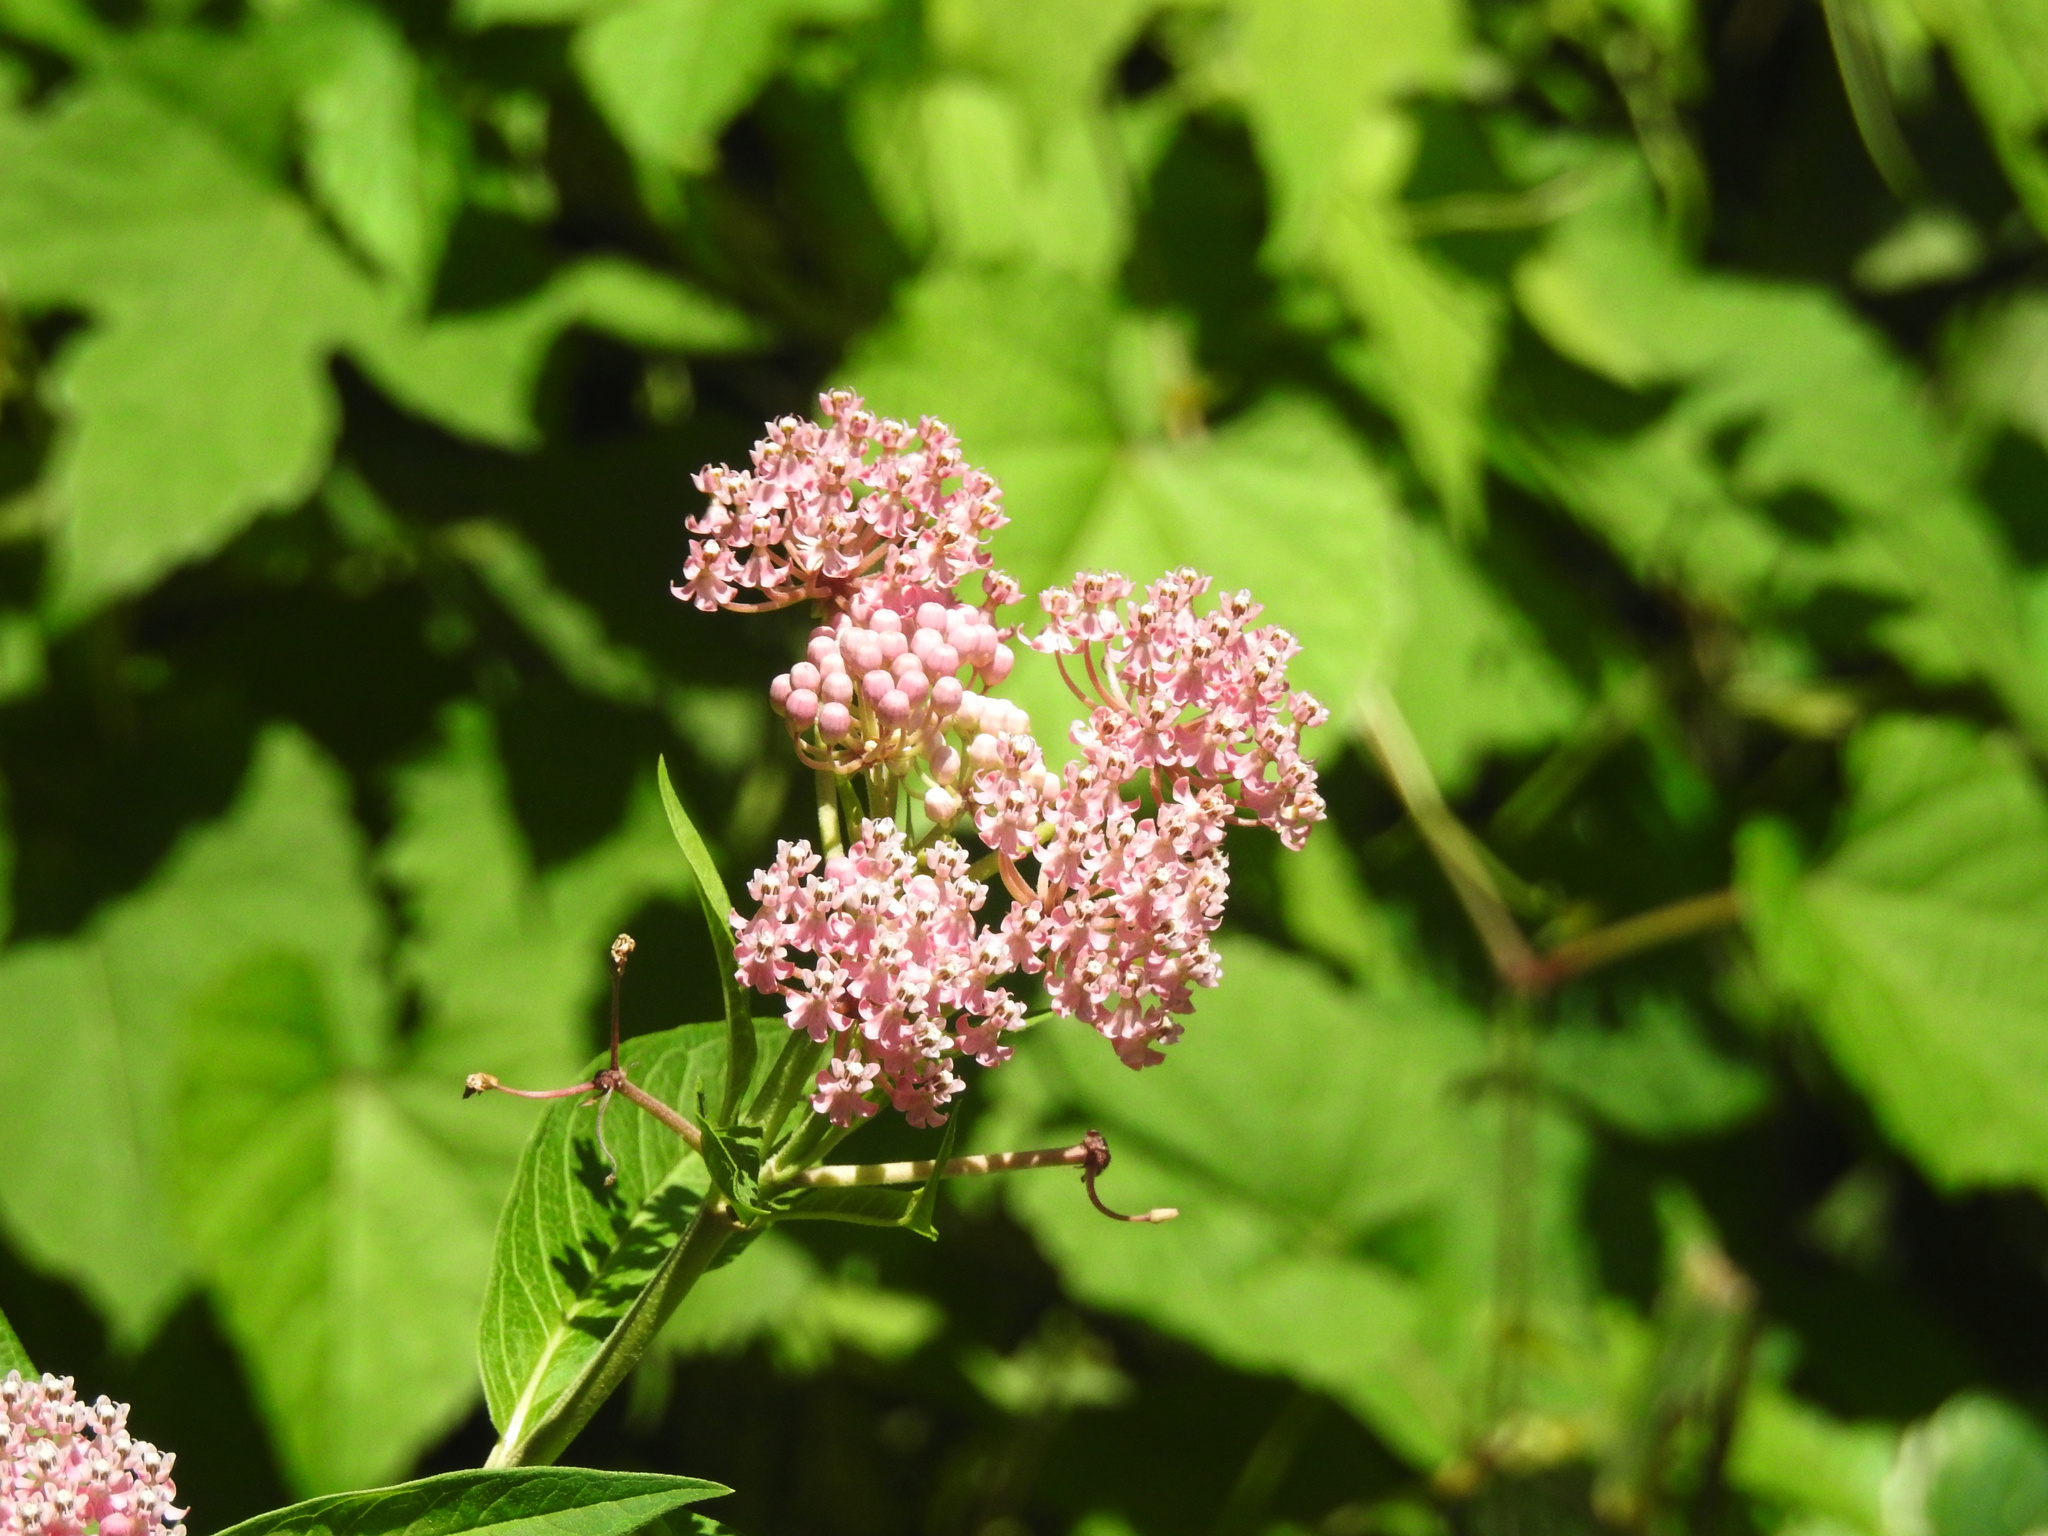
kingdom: Plantae
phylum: Tracheophyta
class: Magnoliopsida
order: Gentianales
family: Apocynaceae
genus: Asclepias
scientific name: Asclepias incarnata
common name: Swamp milkweed
